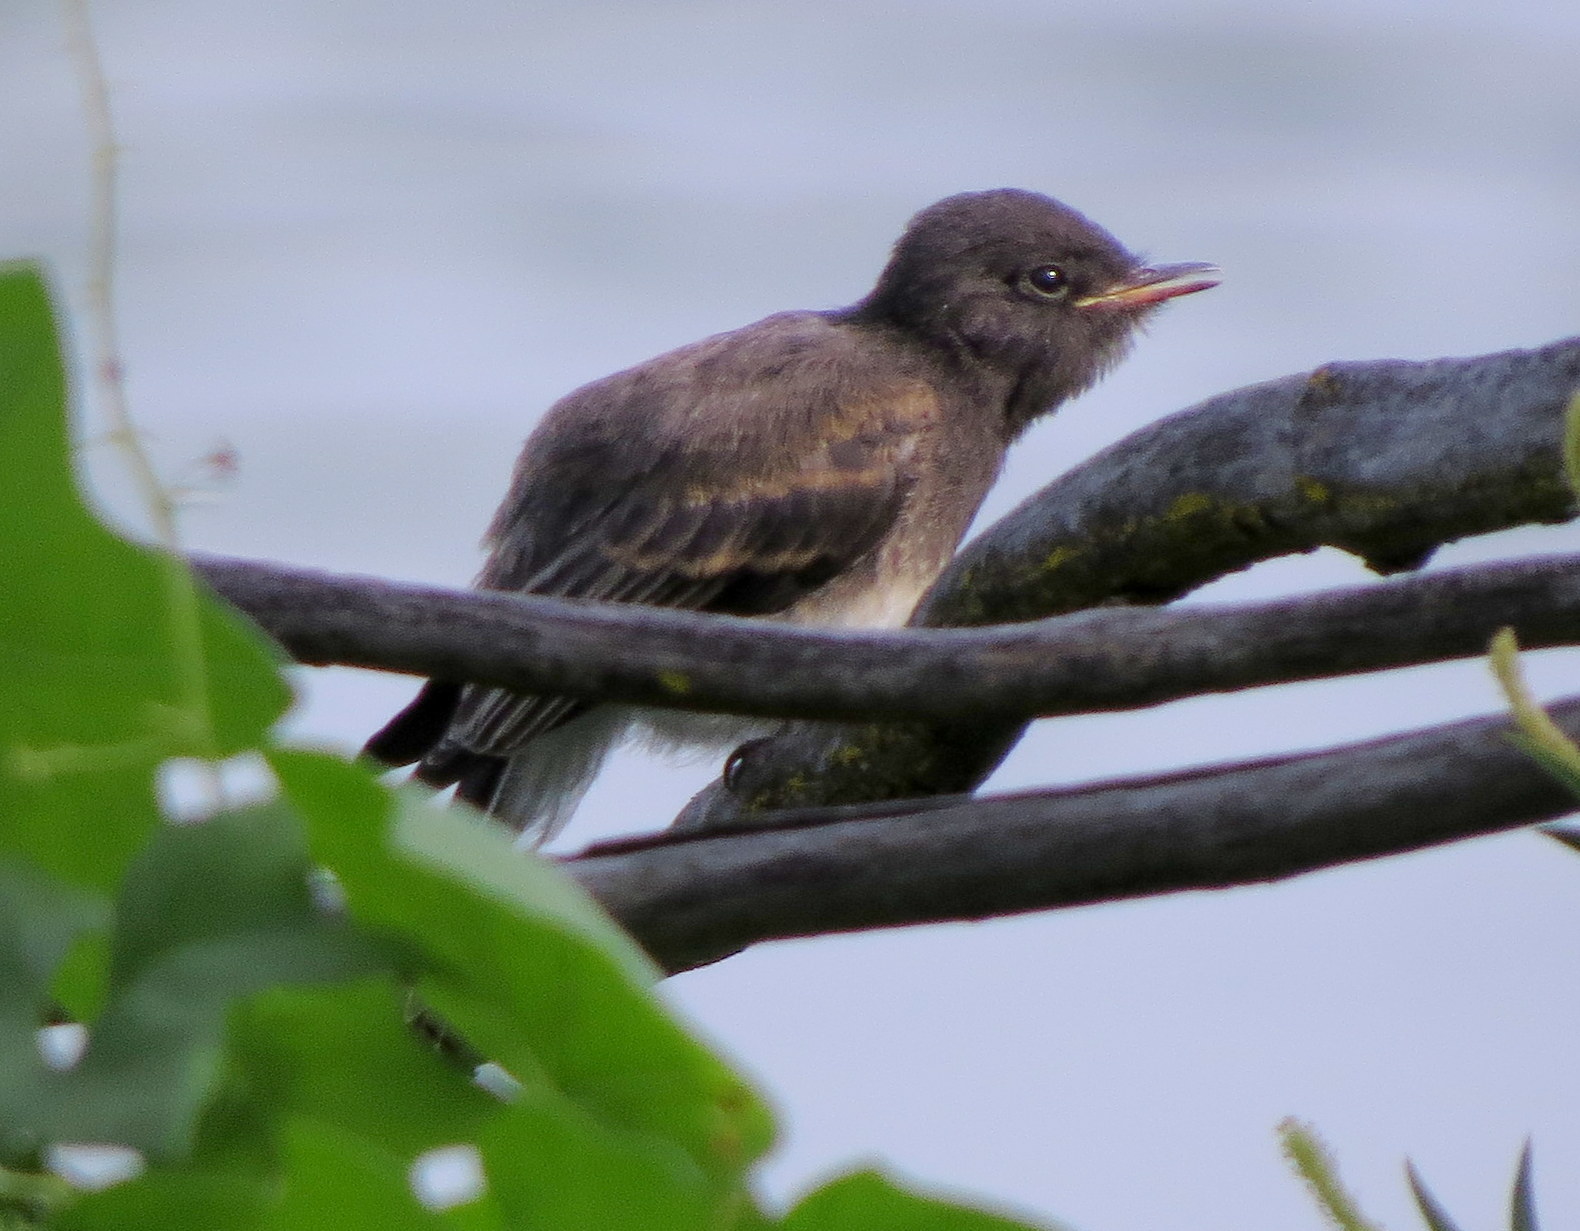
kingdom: Animalia
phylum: Chordata
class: Aves
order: Passeriformes
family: Tyrannidae
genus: Sayornis
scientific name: Sayornis nigricans
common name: Black phoebe
